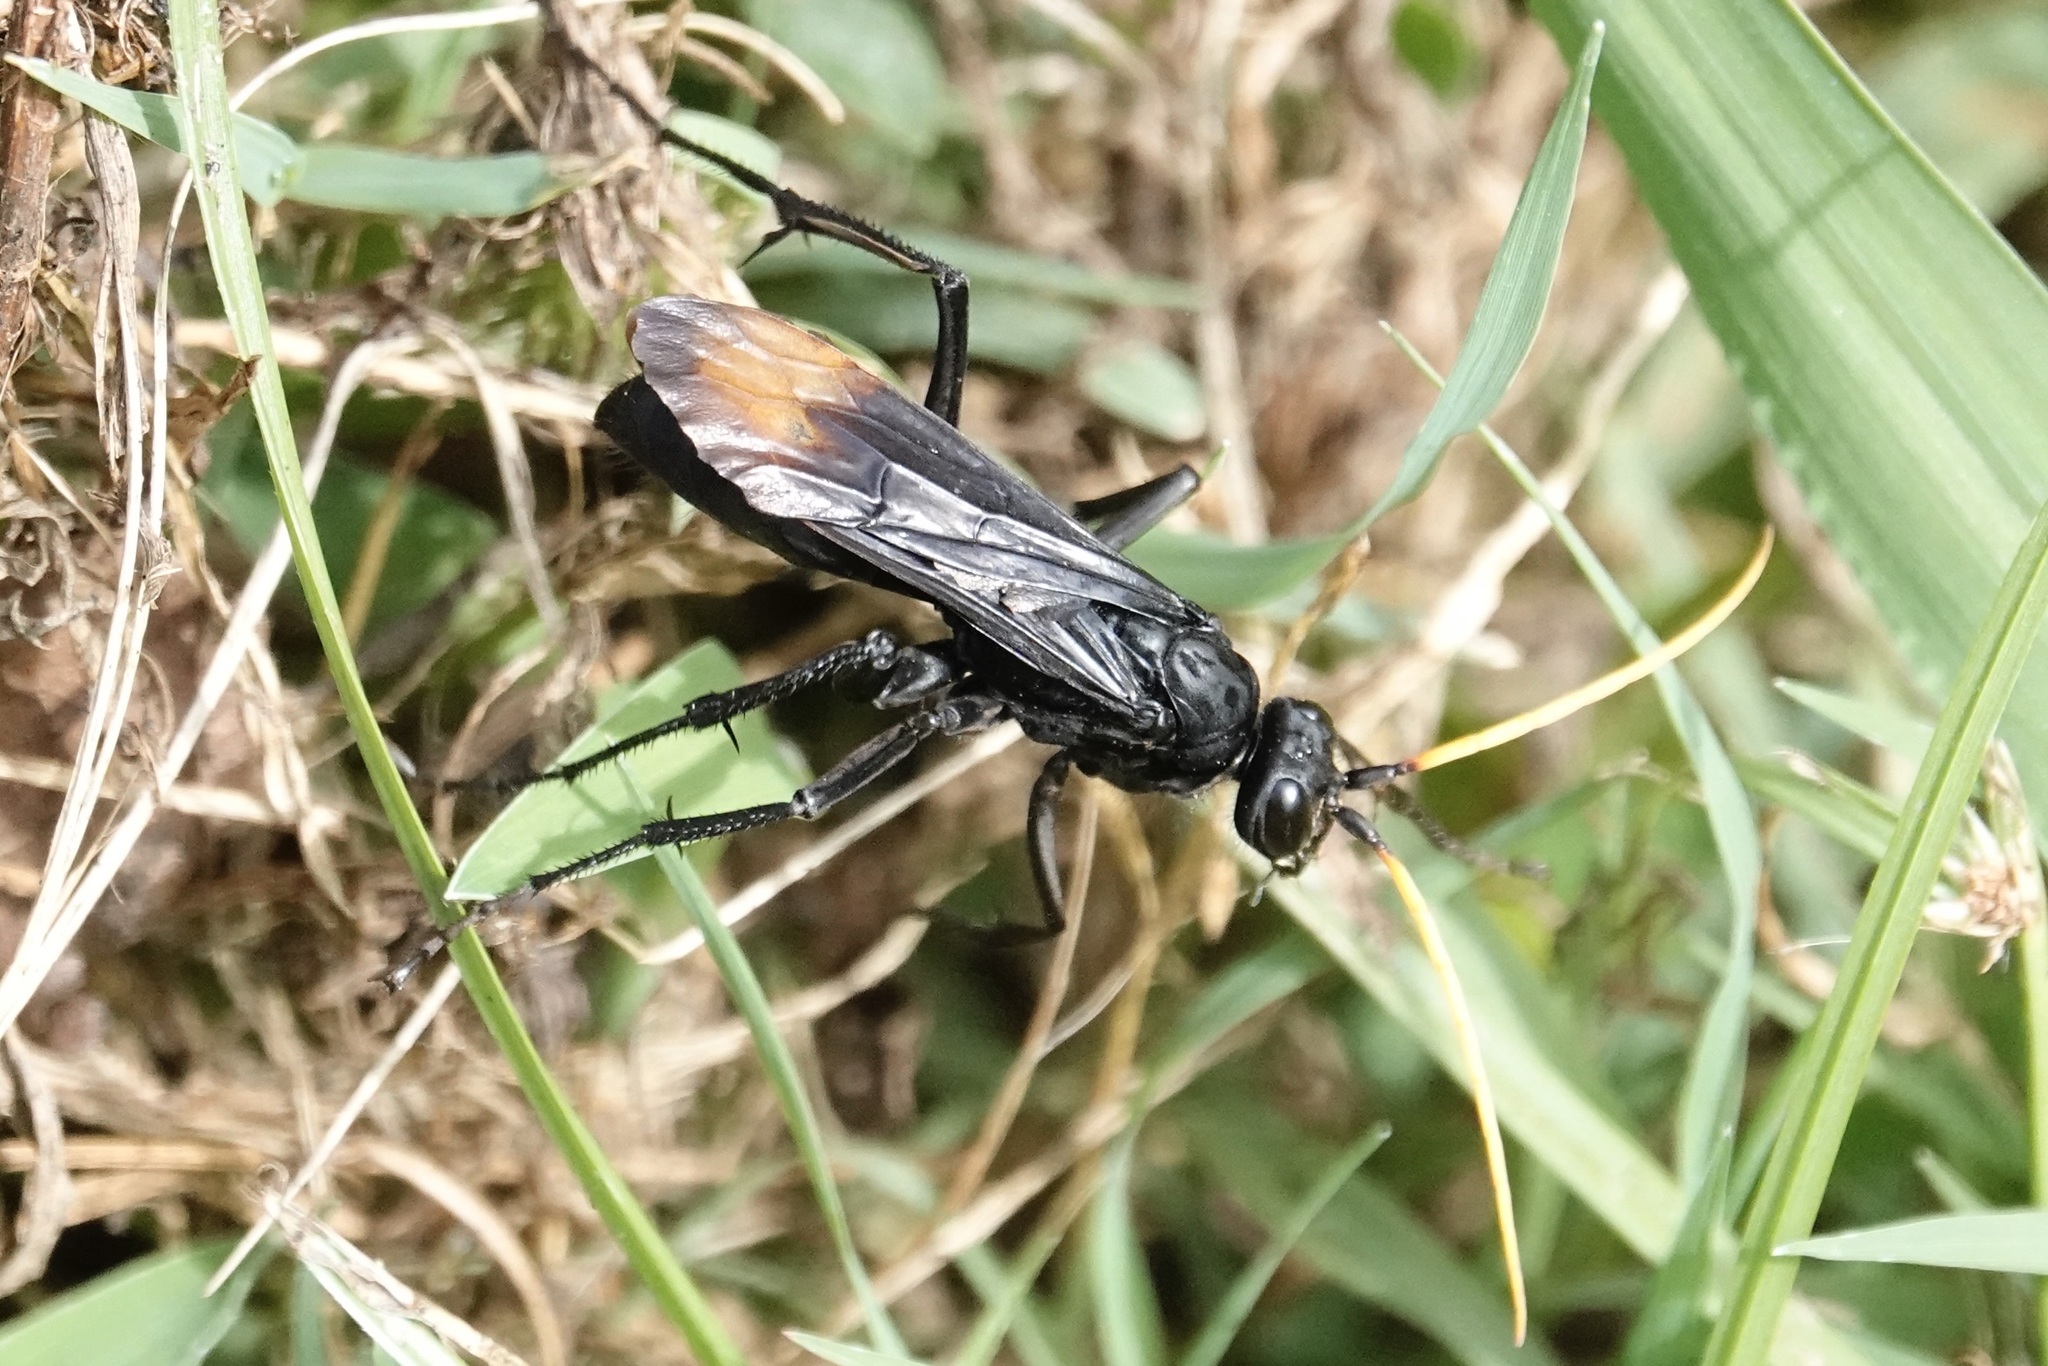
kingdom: Animalia
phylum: Arthropoda
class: Insecta
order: Hymenoptera
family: Pompilidae
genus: Entypus
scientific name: Entypus unifasciatus
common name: Eastern tawny-horned spider wasp
